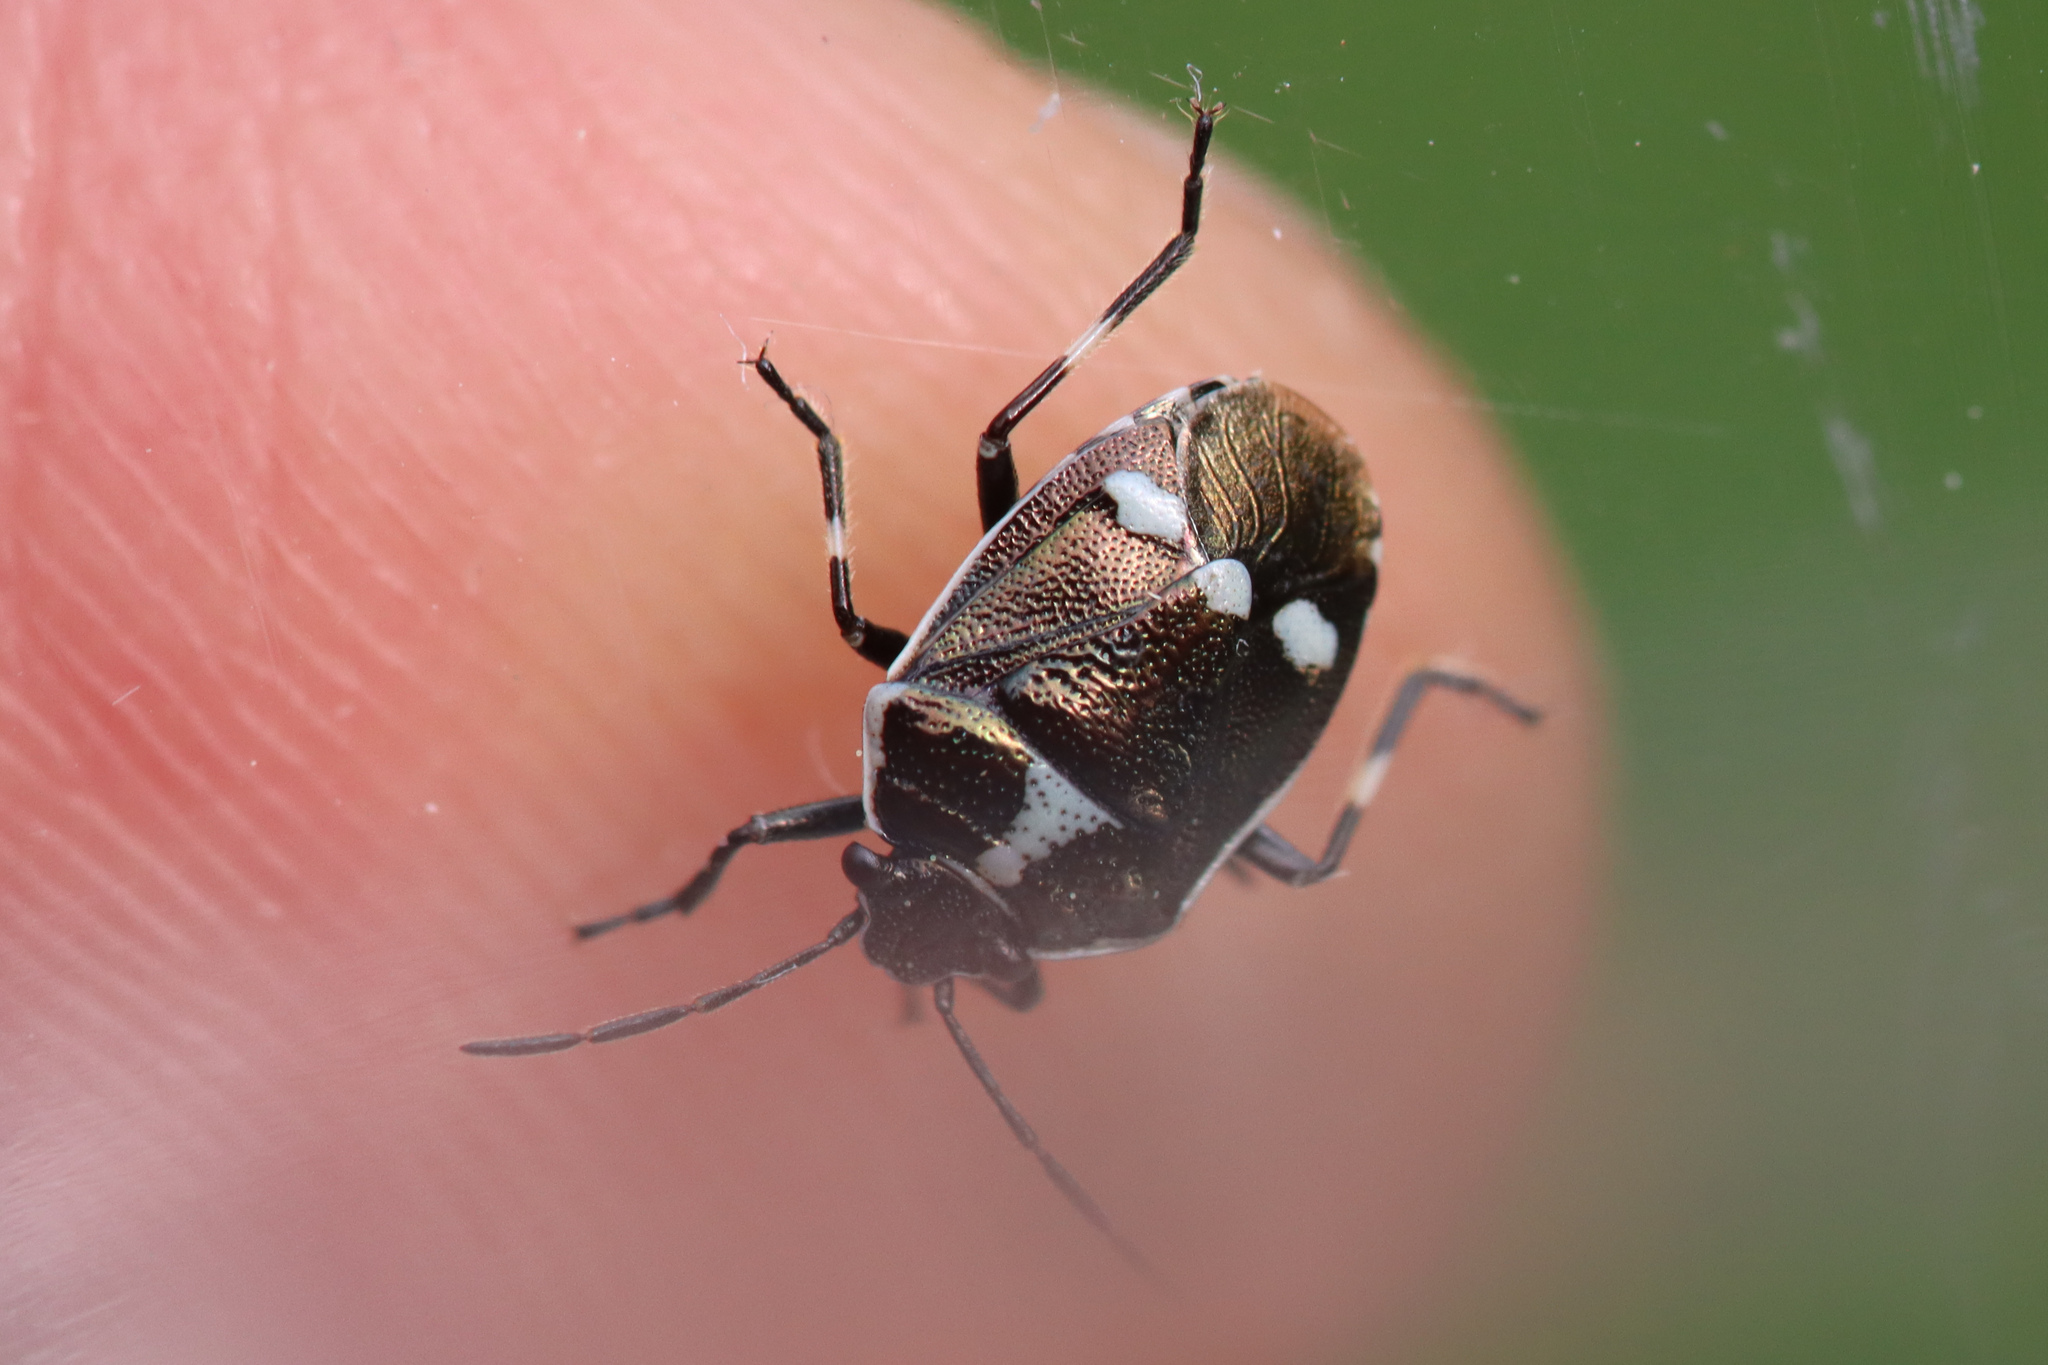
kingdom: Animalia
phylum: Arthropoda
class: Insecta
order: Hemiptera
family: Pentatomidae
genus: Eurydema
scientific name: Eurydema oleracea
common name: Cabbage bug
